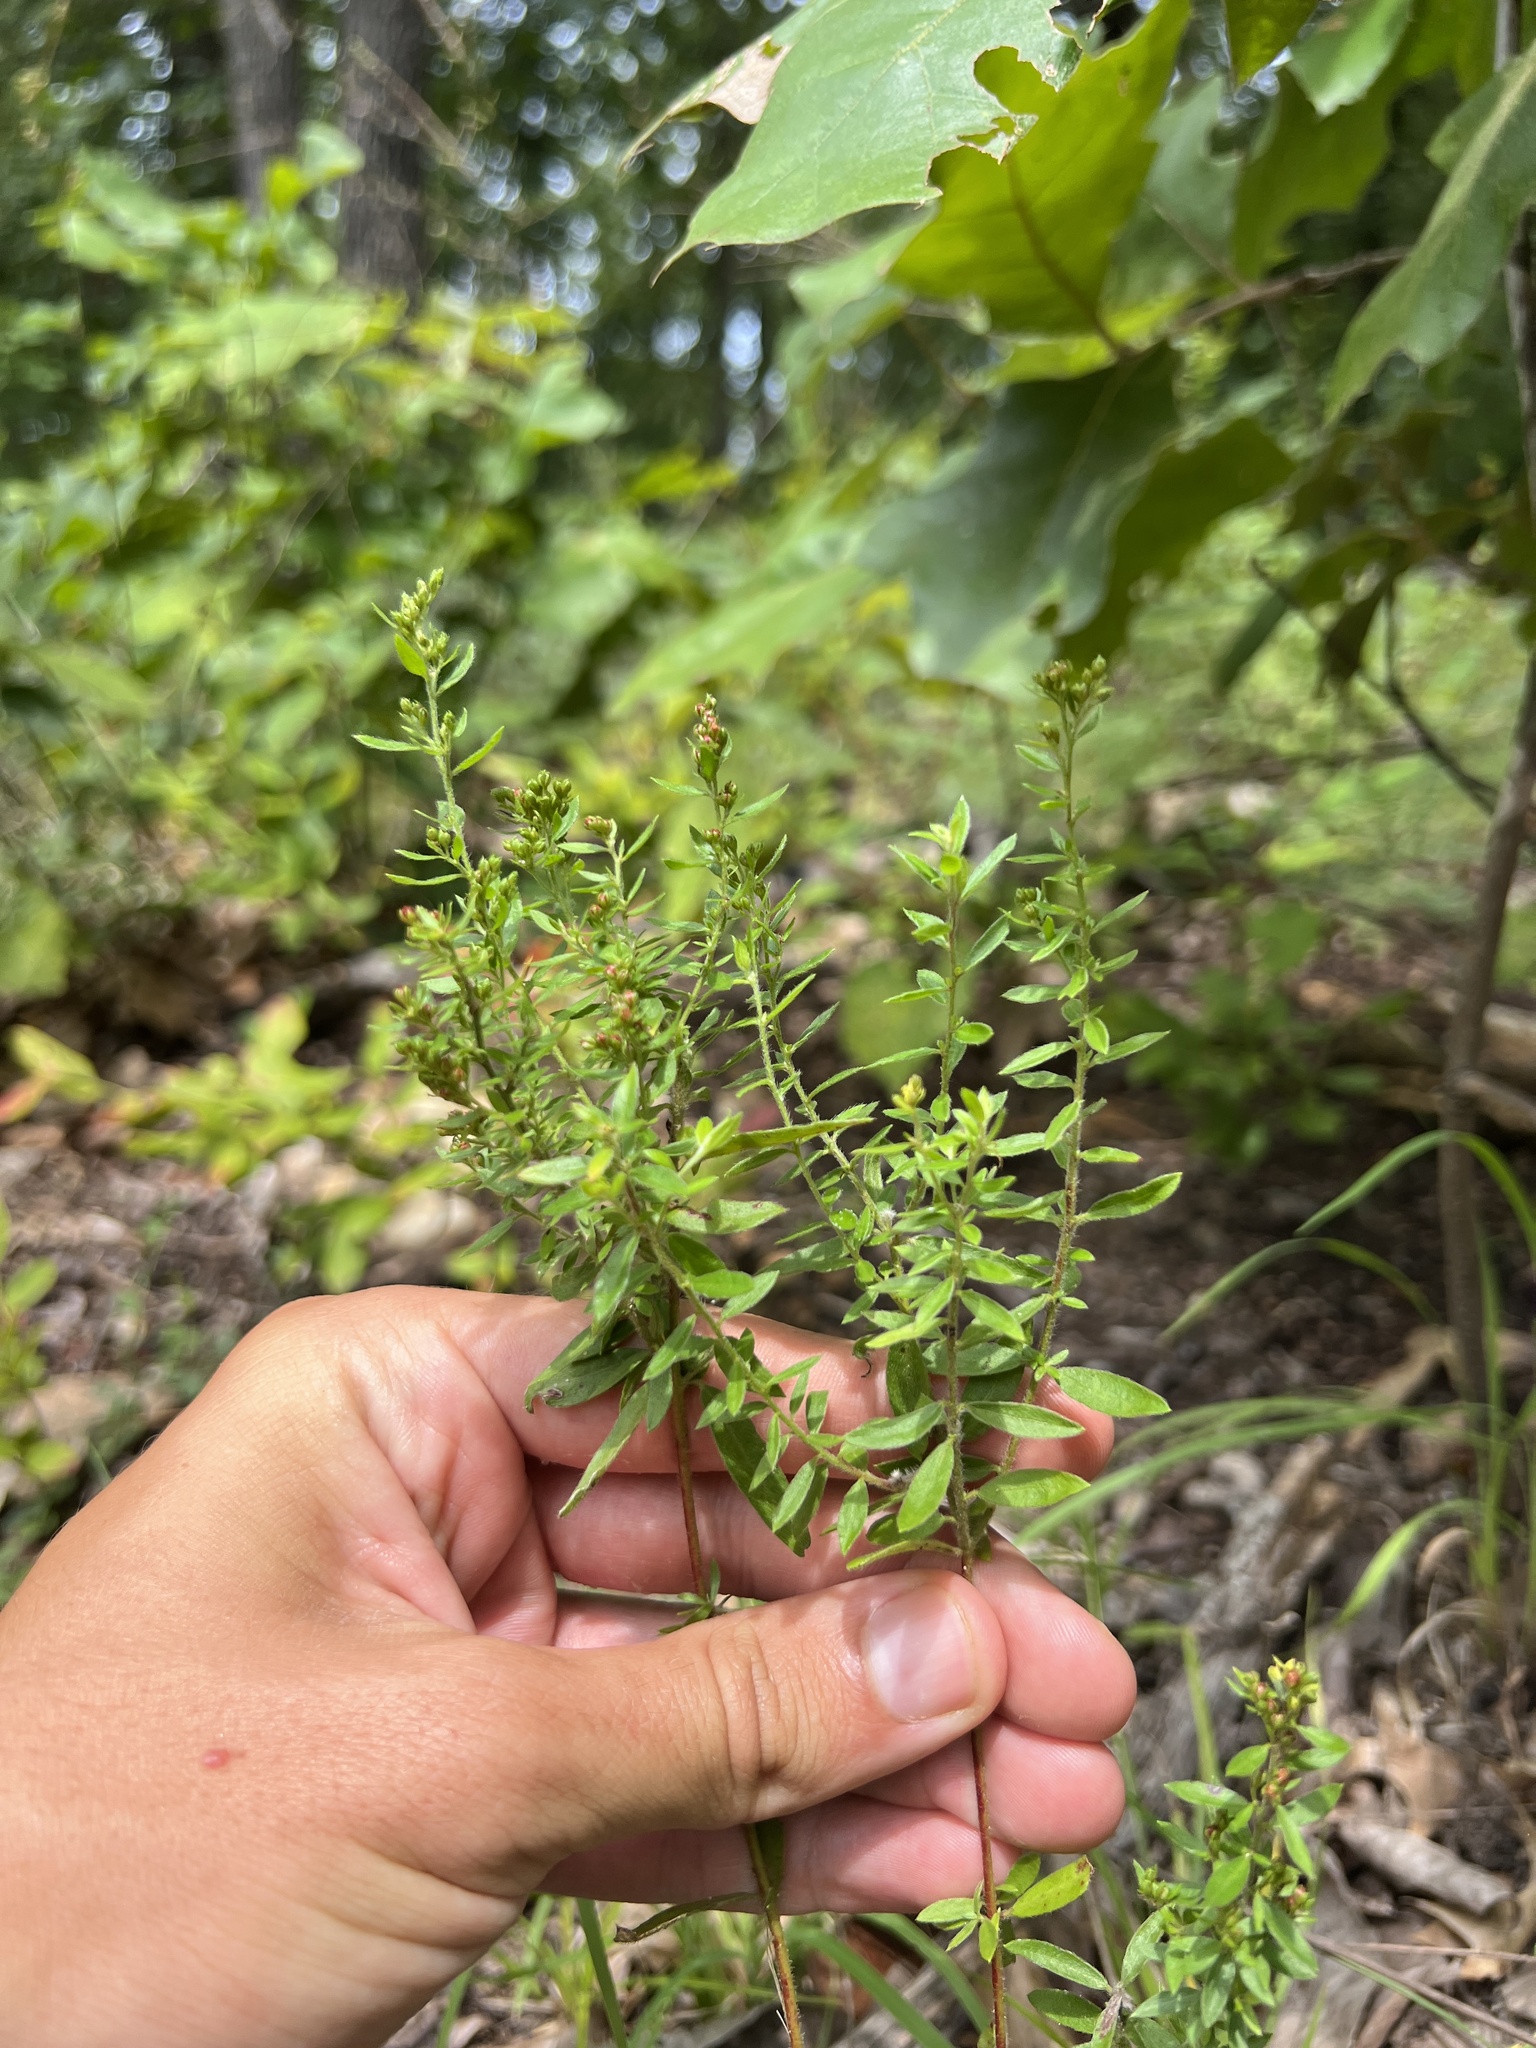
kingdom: Plantae
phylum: Tracheophyta
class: Magnoliopsida
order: Malvales
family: Cistaceae
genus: Lechea
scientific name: Lechea mucronata
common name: Hairy pinweed
